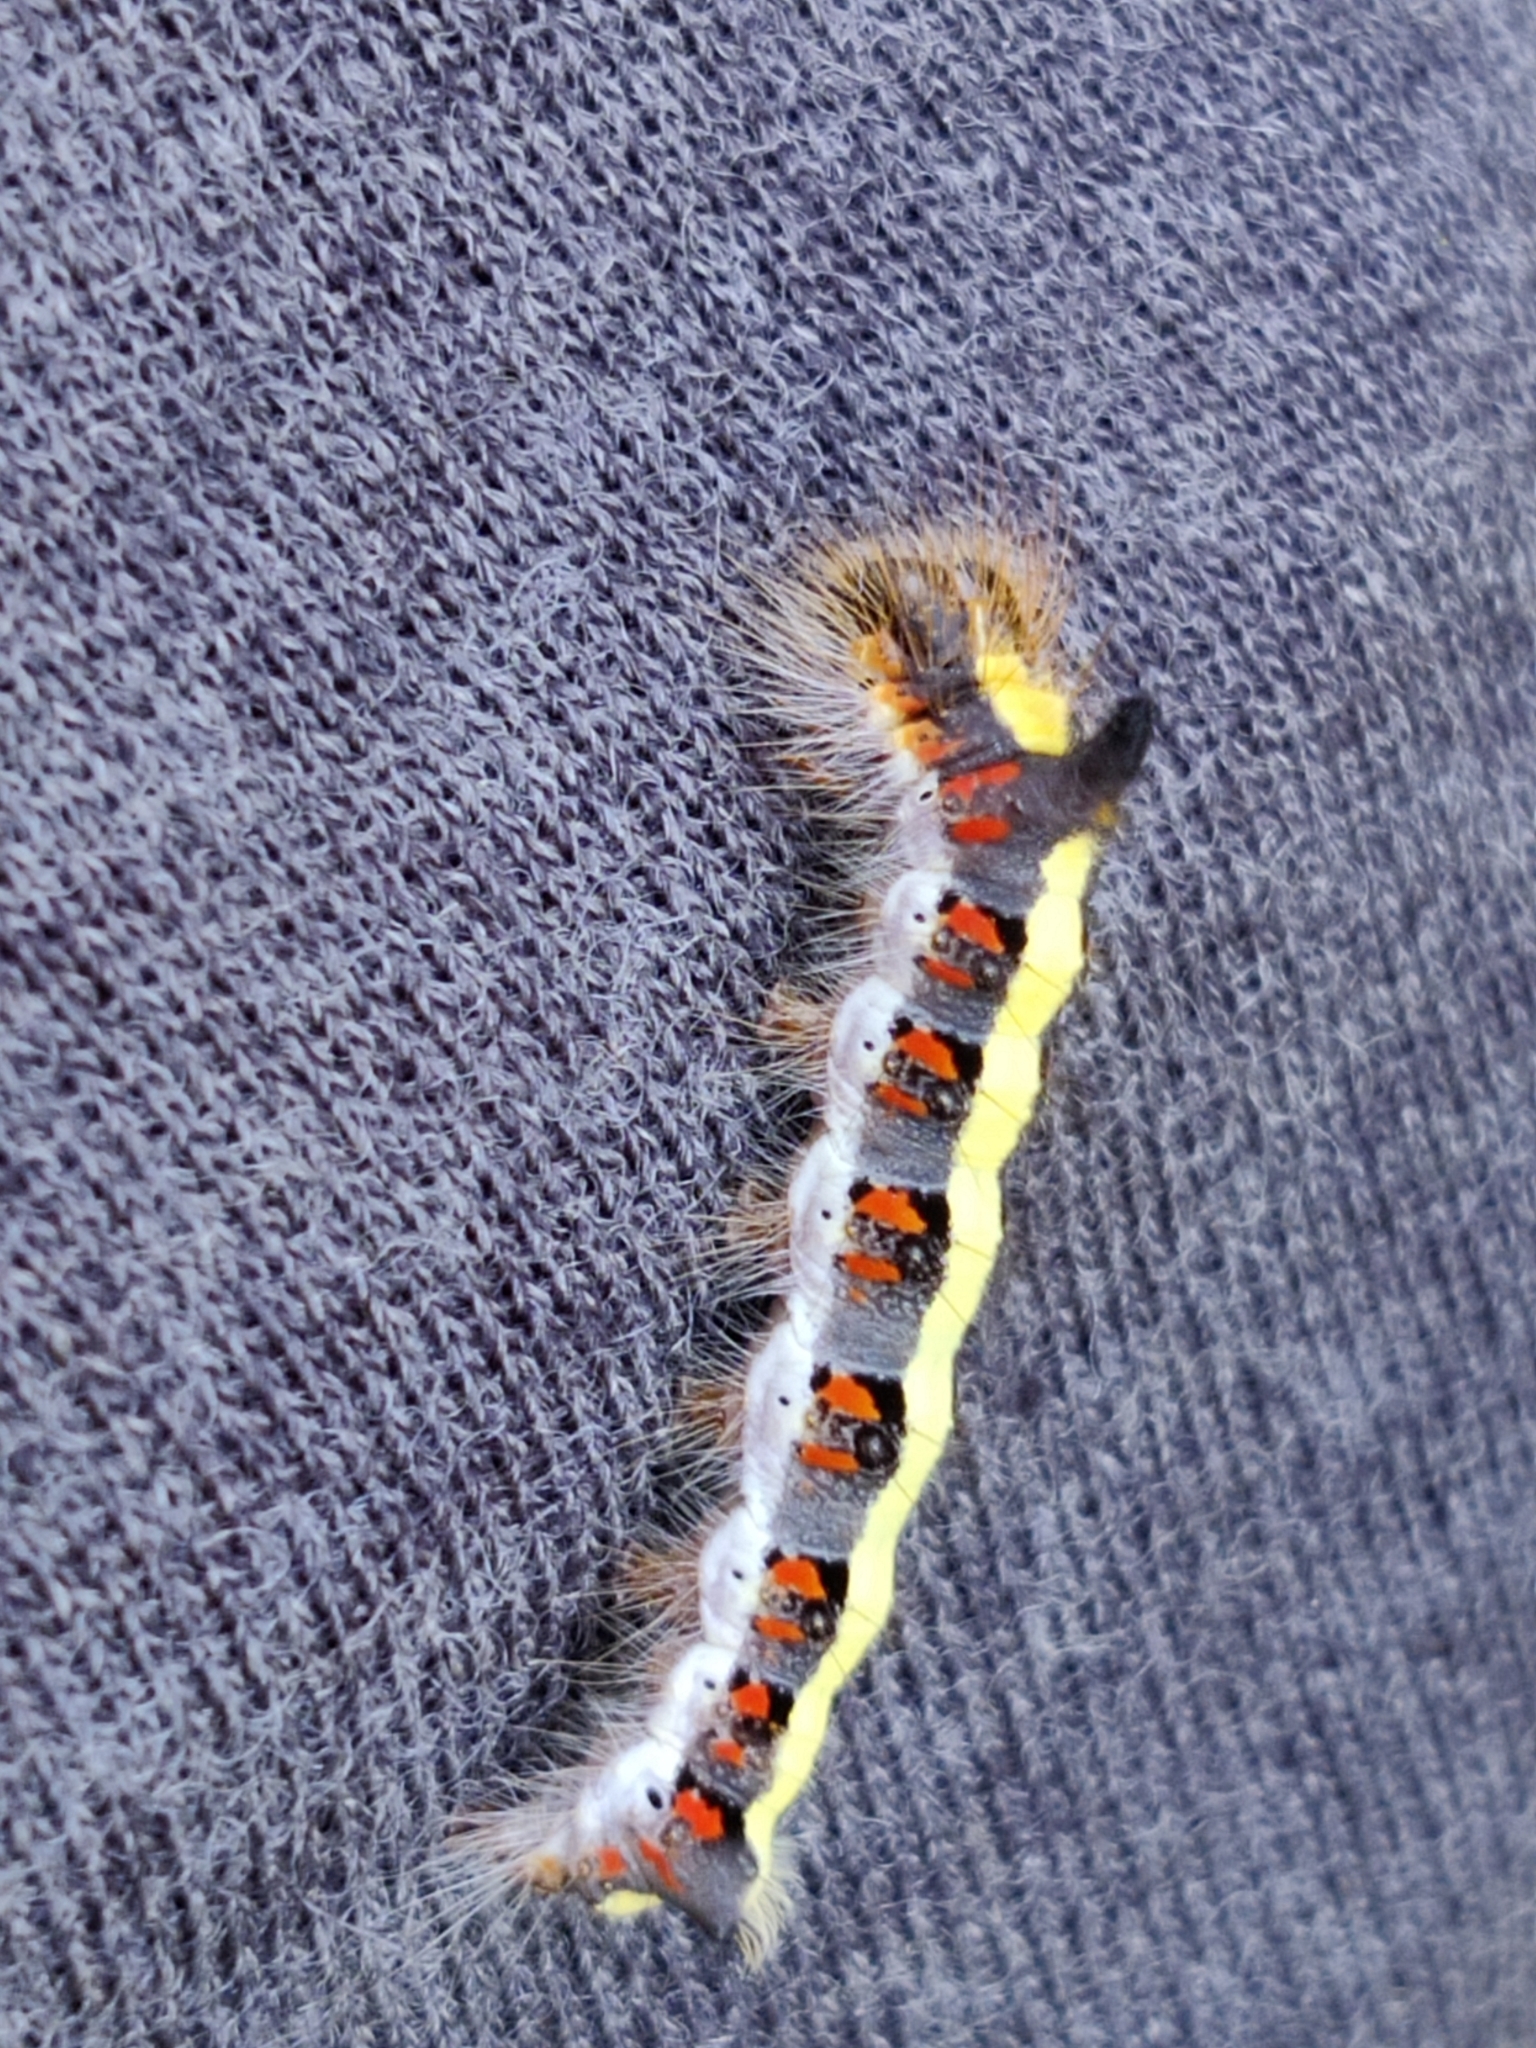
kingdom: Animalia
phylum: Arthropoda
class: Insecta
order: Lepidoptera
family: Noctuidae
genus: Acronicta
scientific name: Acronicta psi
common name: Grey dagger
